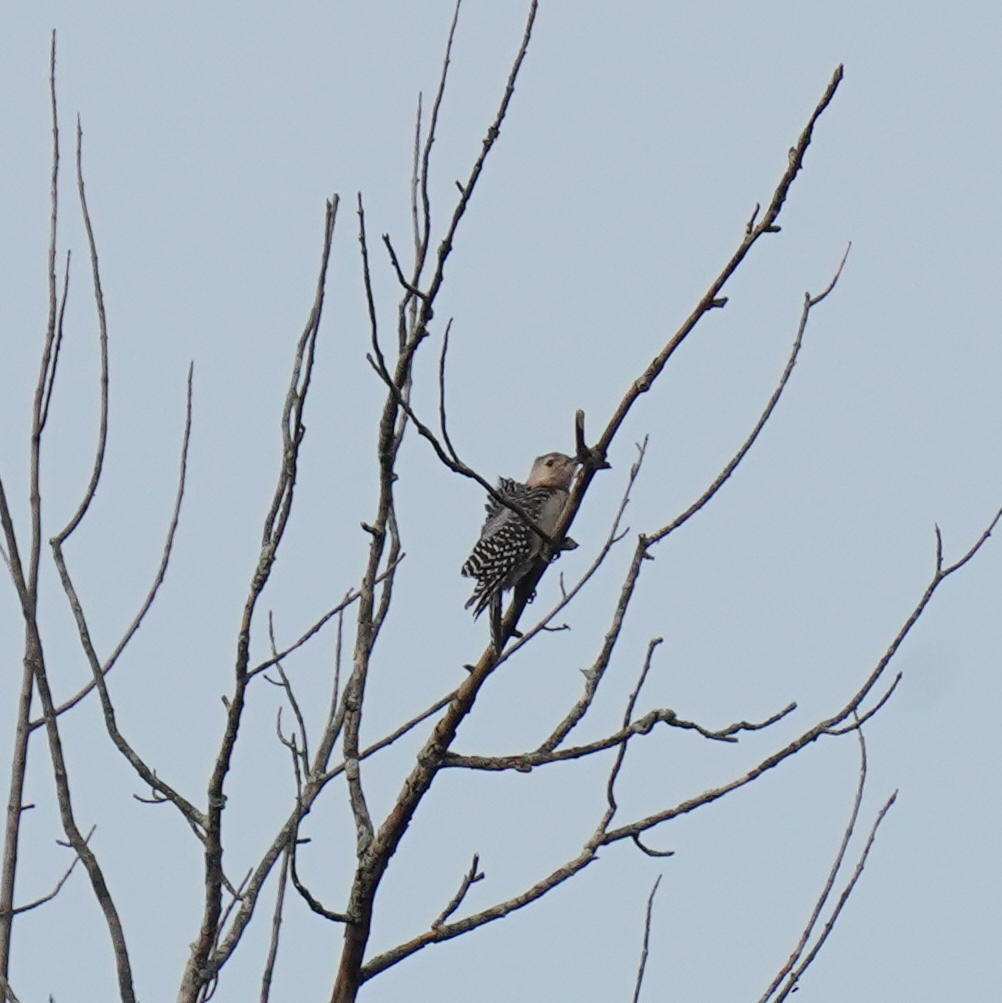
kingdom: Animalia
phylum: Chordata
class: Aves
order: Piciformes
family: Picidae
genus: Melanerpes
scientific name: Melanerpes carolinus
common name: Red-bellied woodpecker
